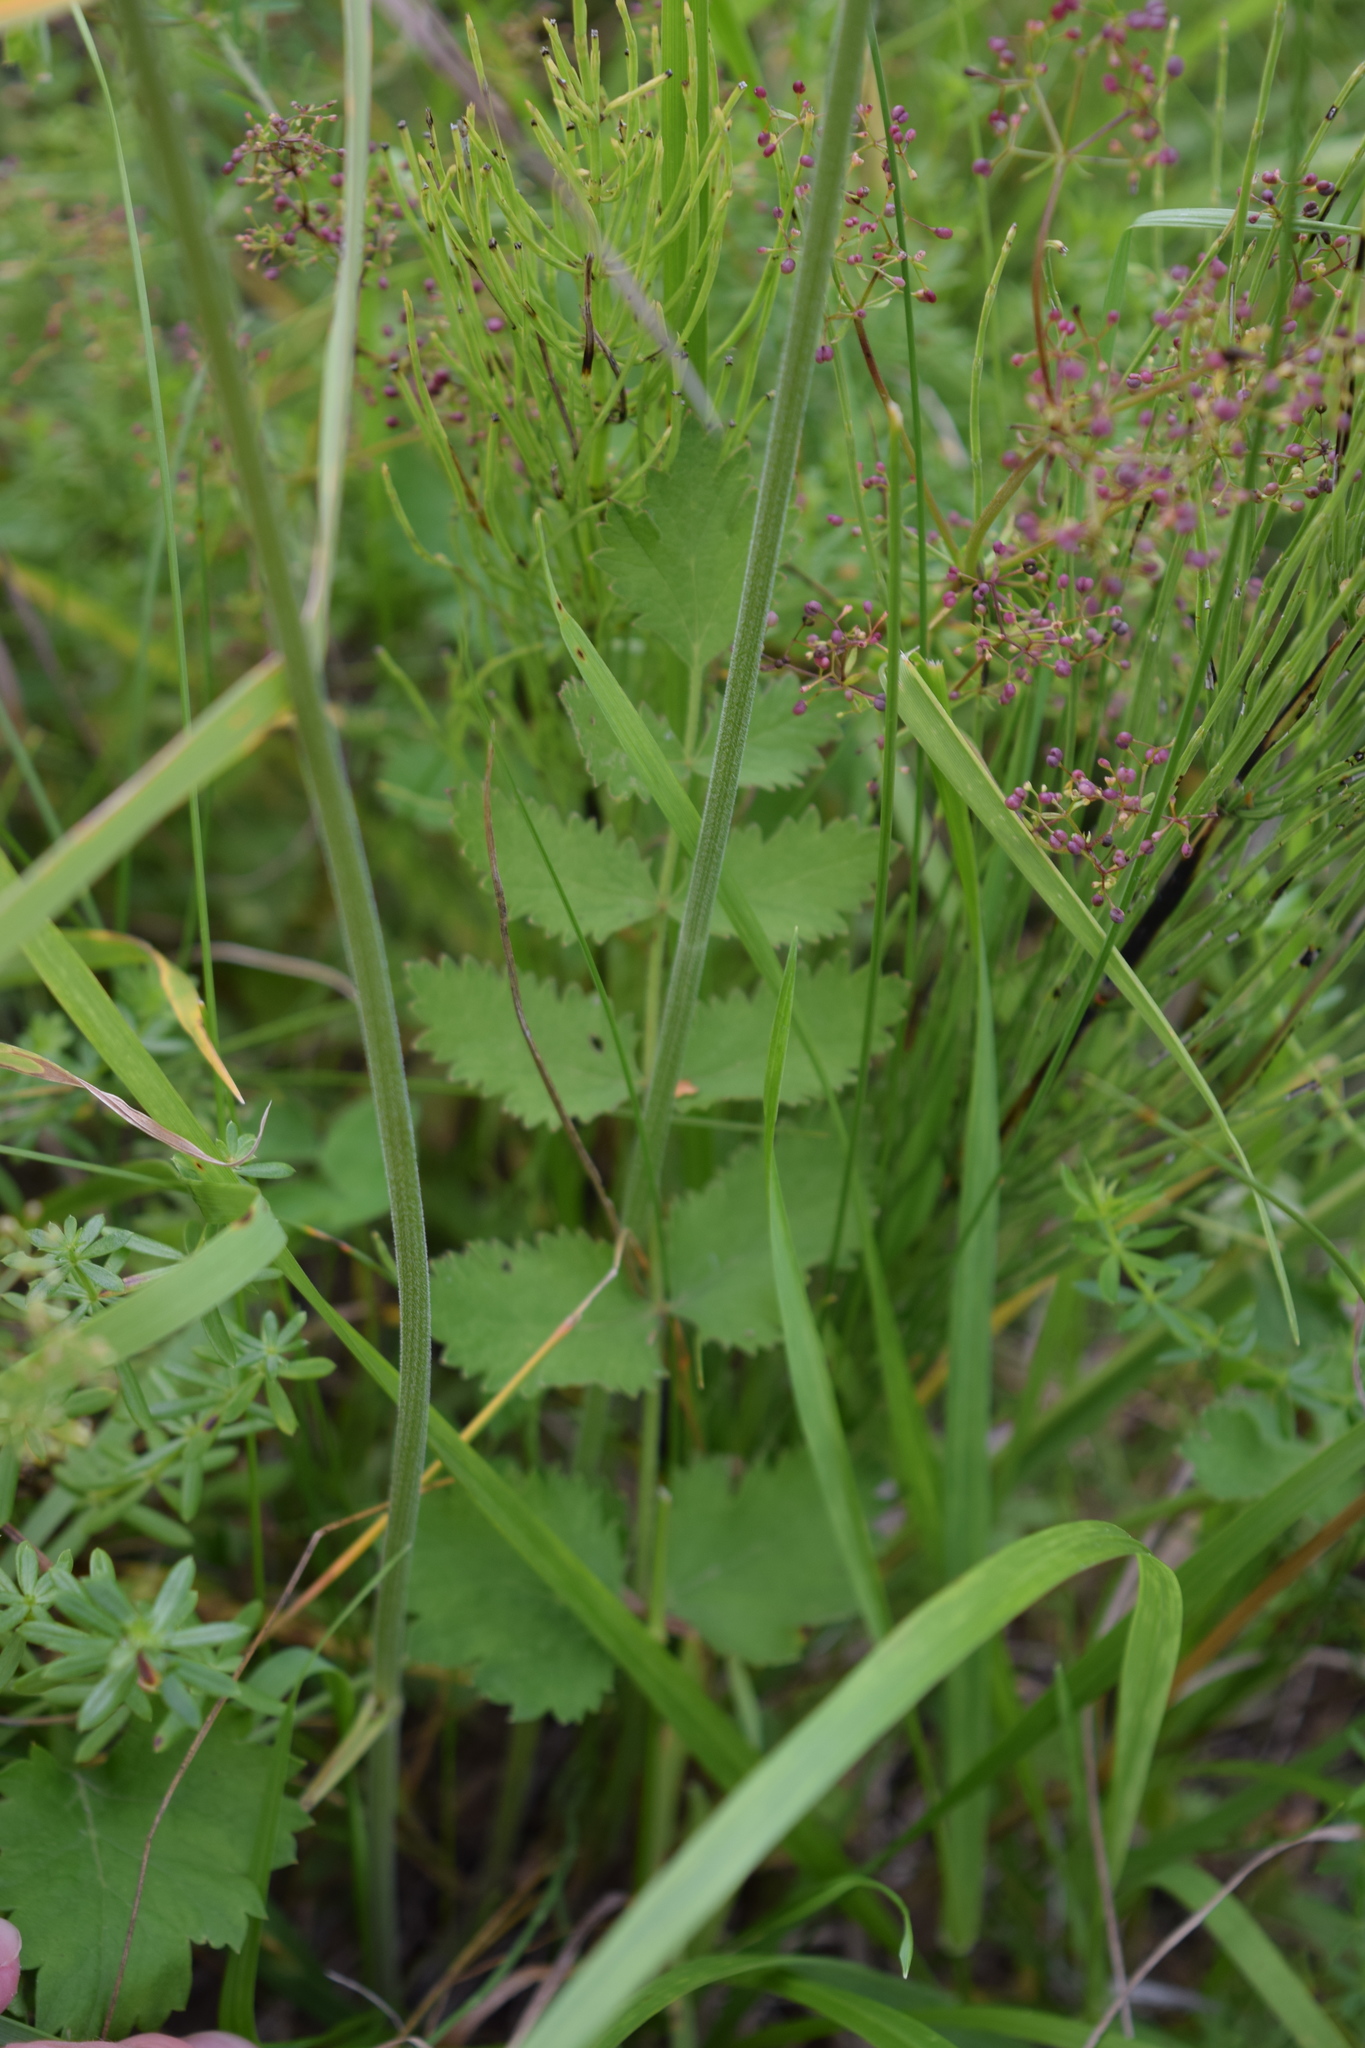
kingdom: Plantae
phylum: Tracheophyta
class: Magnoliopsida
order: Apiales
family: Apiaceae
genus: Pimpinella
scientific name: Pimpinella saxifraga
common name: Burnet-saxifrage
